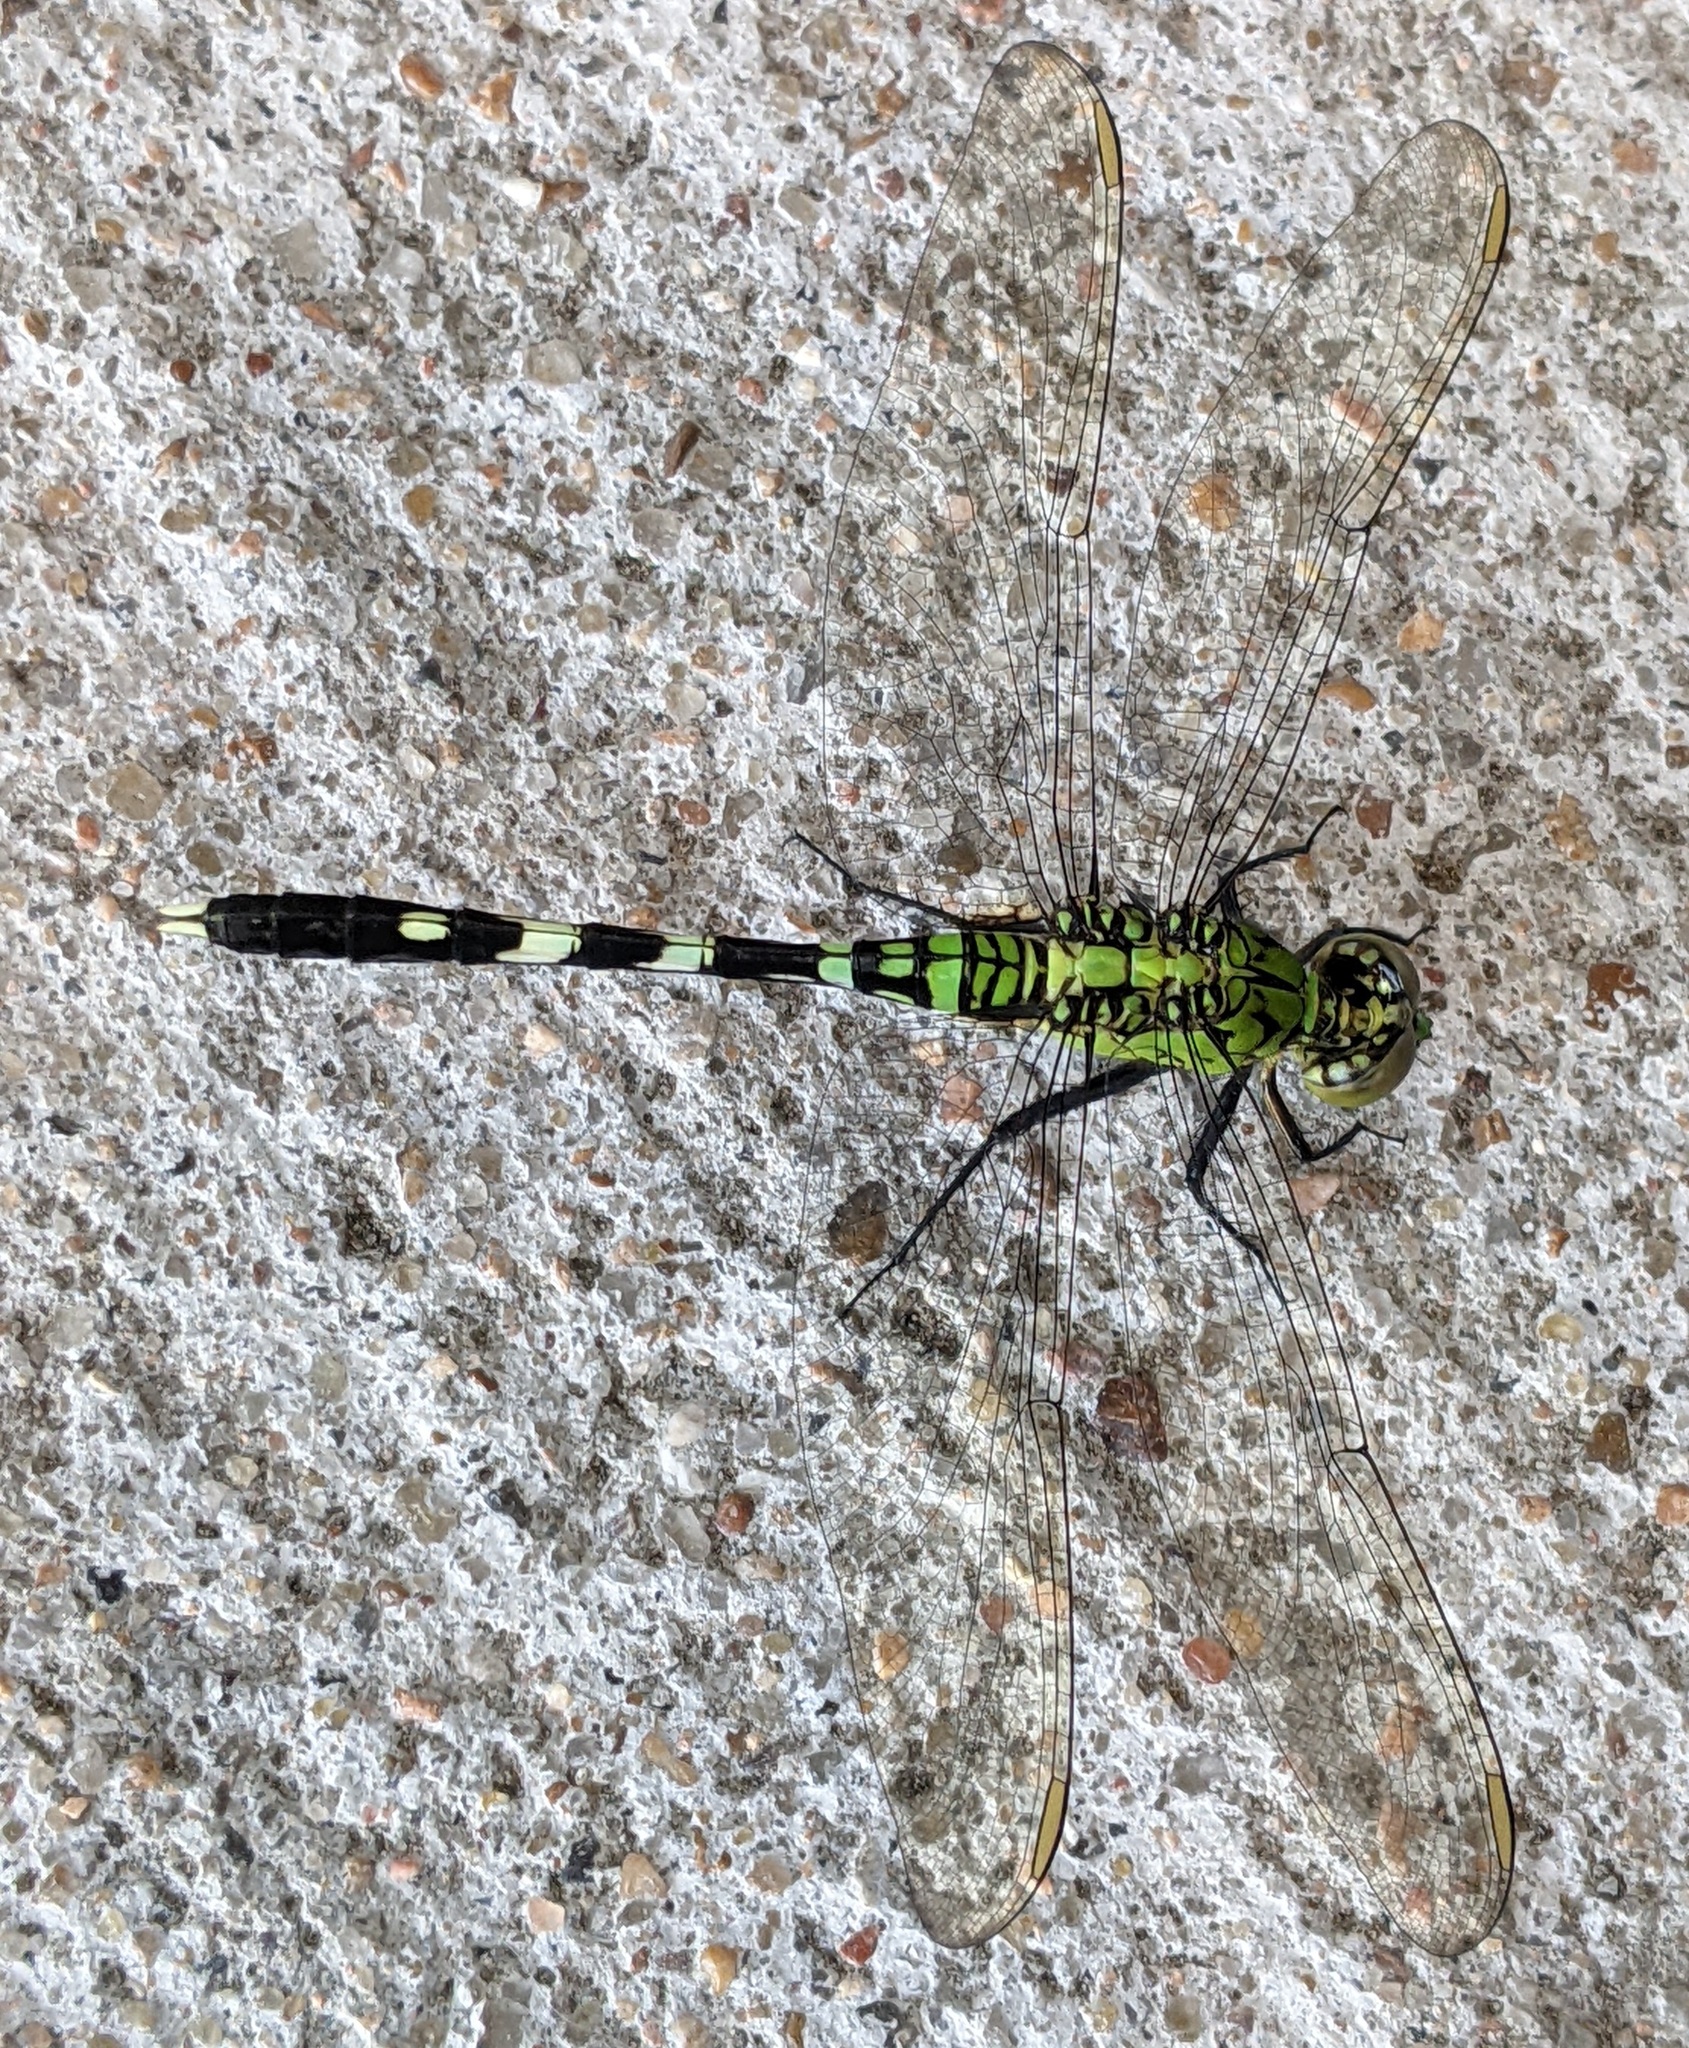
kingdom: Animalia
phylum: Arthropoda
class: Insecta
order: Odonata
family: Libellulidae
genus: Erythemis
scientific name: Erythemis simplicicollis
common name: Eastern pondhawk
